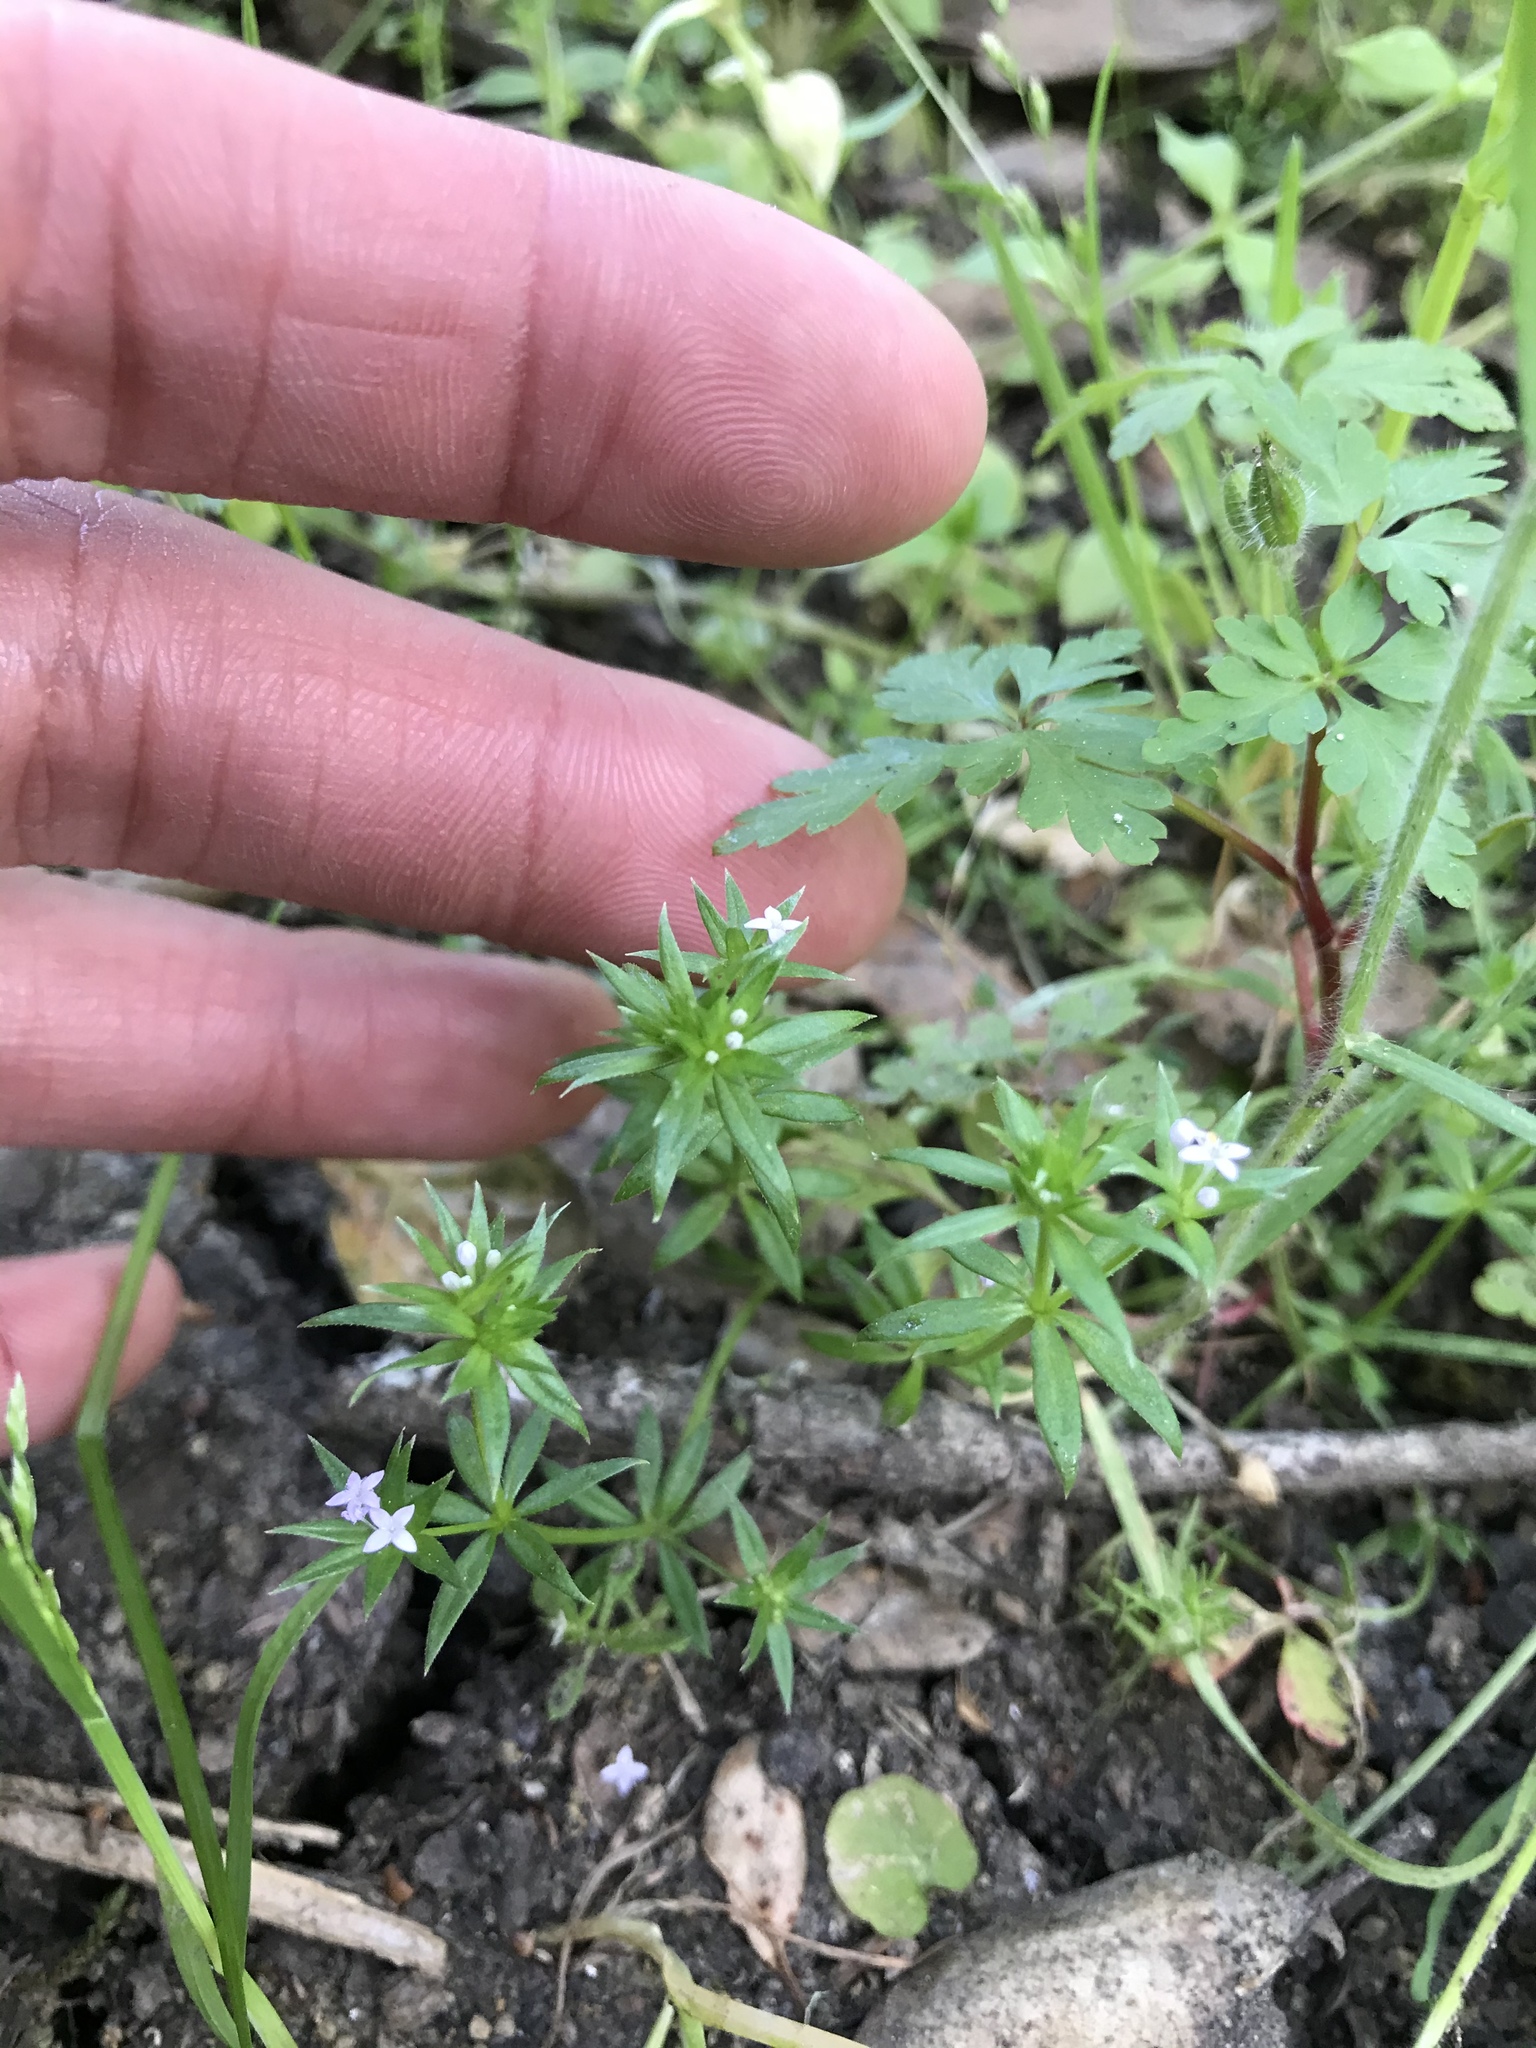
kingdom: Plantae
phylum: Tracheophyta
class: Magnoliopsida
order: Gentianales
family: Rubiaceae
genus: Sherardia
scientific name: Sherardia arvensis
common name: Field madder
